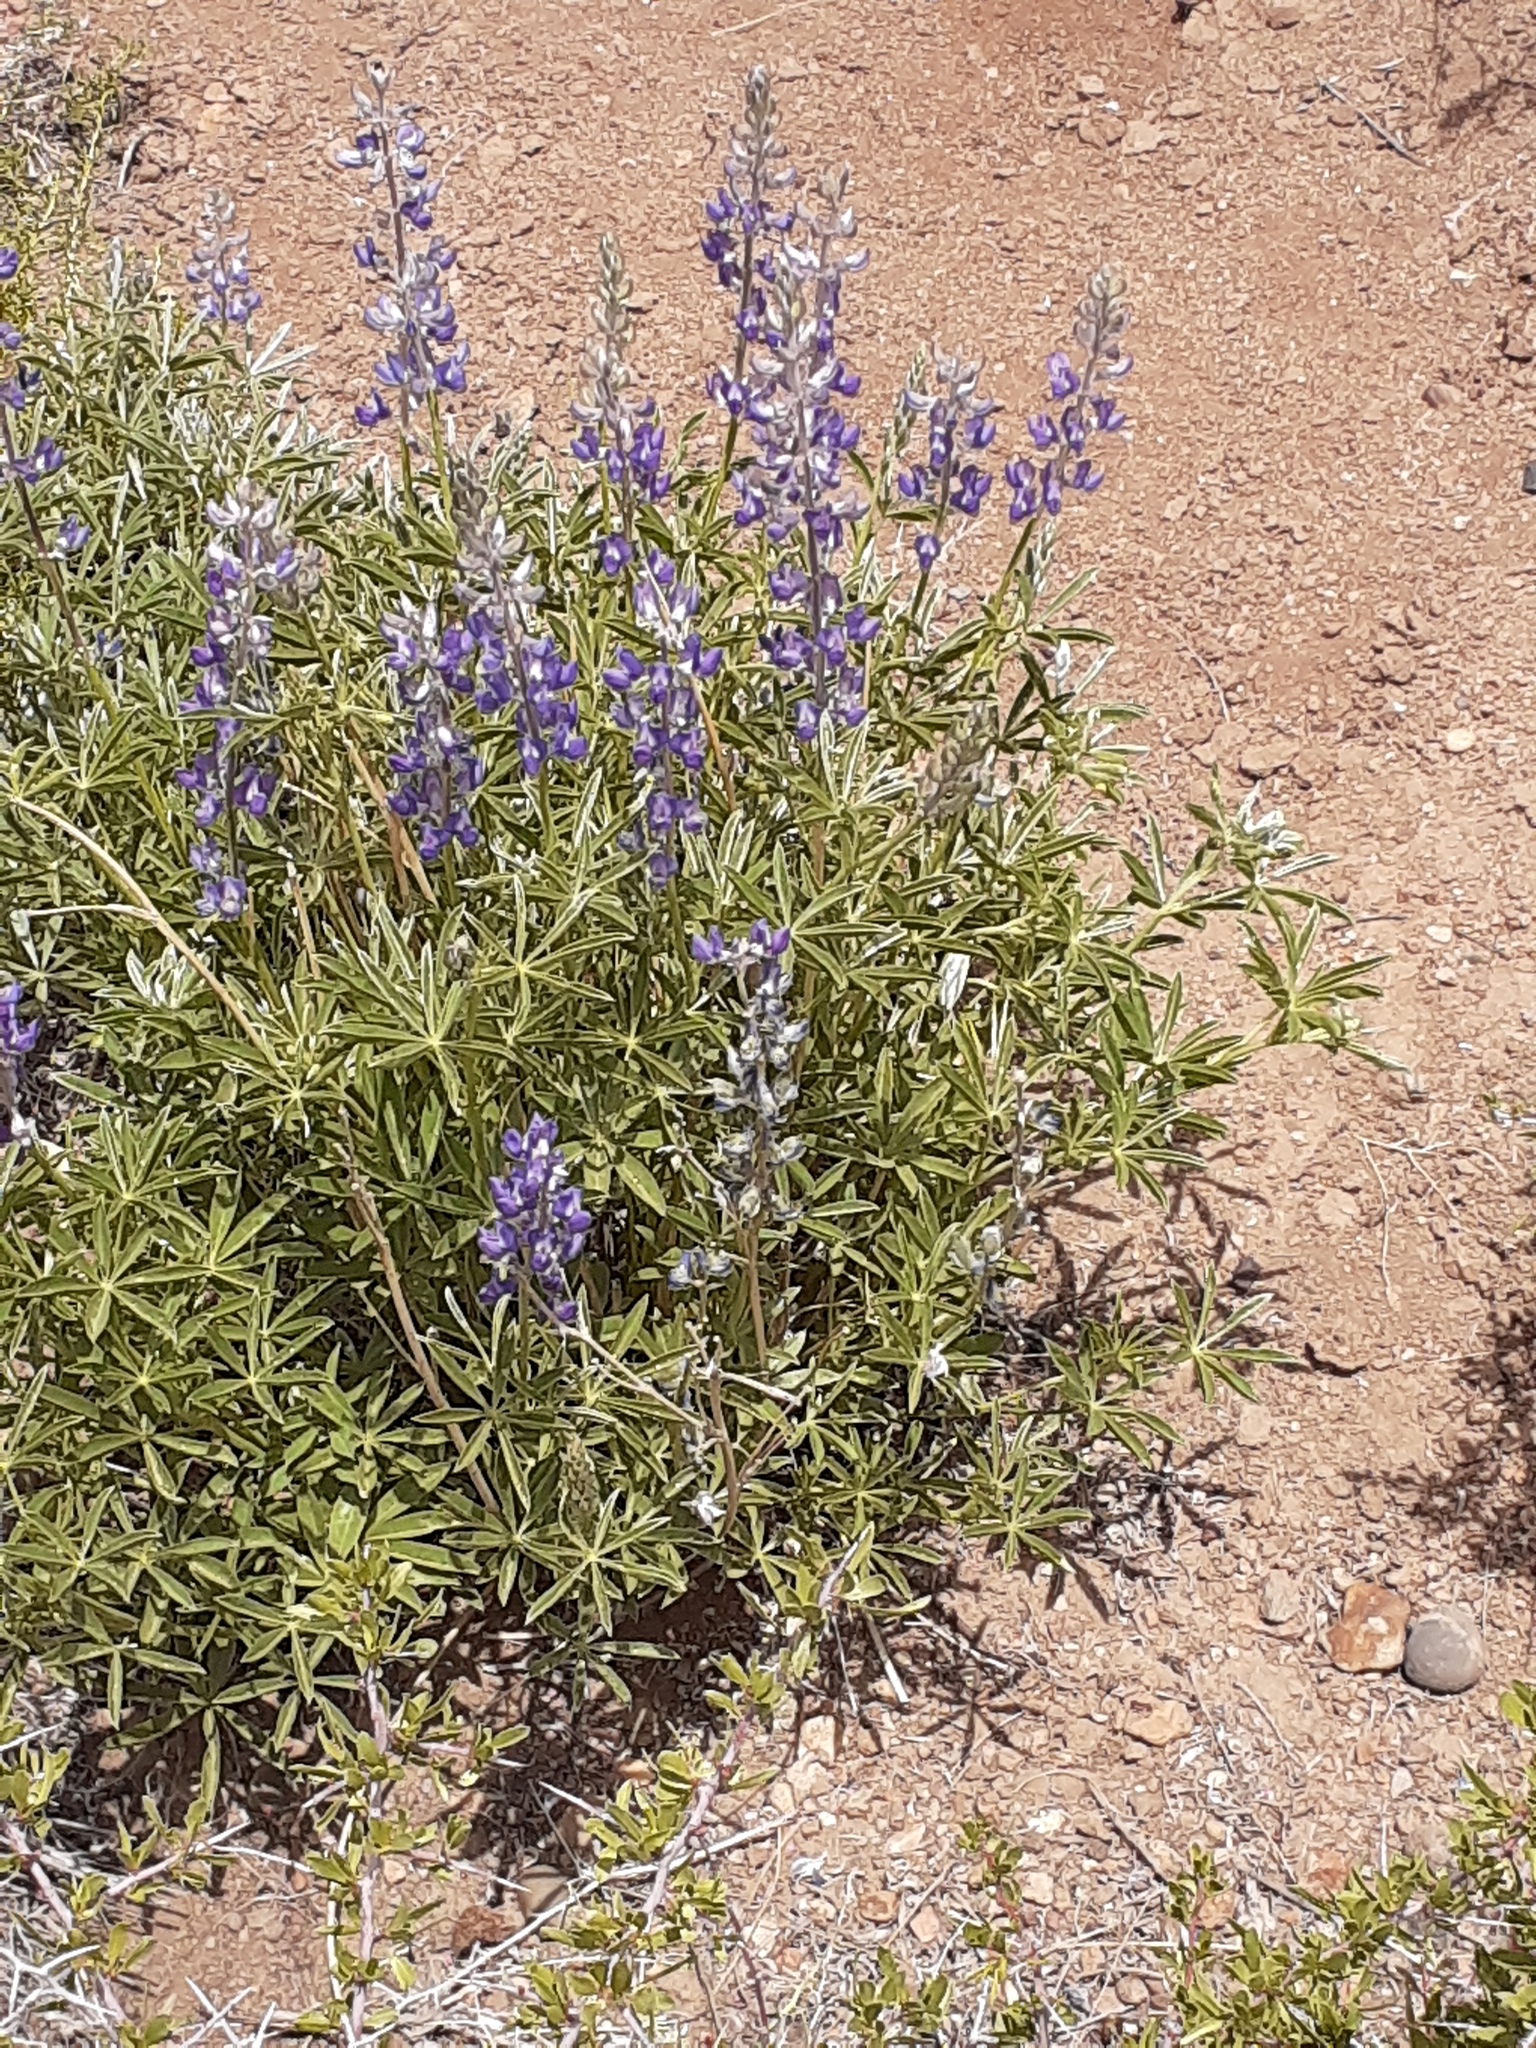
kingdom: Plantae
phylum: Tracheophyta
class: Magnoliopsida
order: Fabales
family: Fabaceae
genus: Lupinus
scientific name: Lupinus argenteus
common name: Silvery lupine
